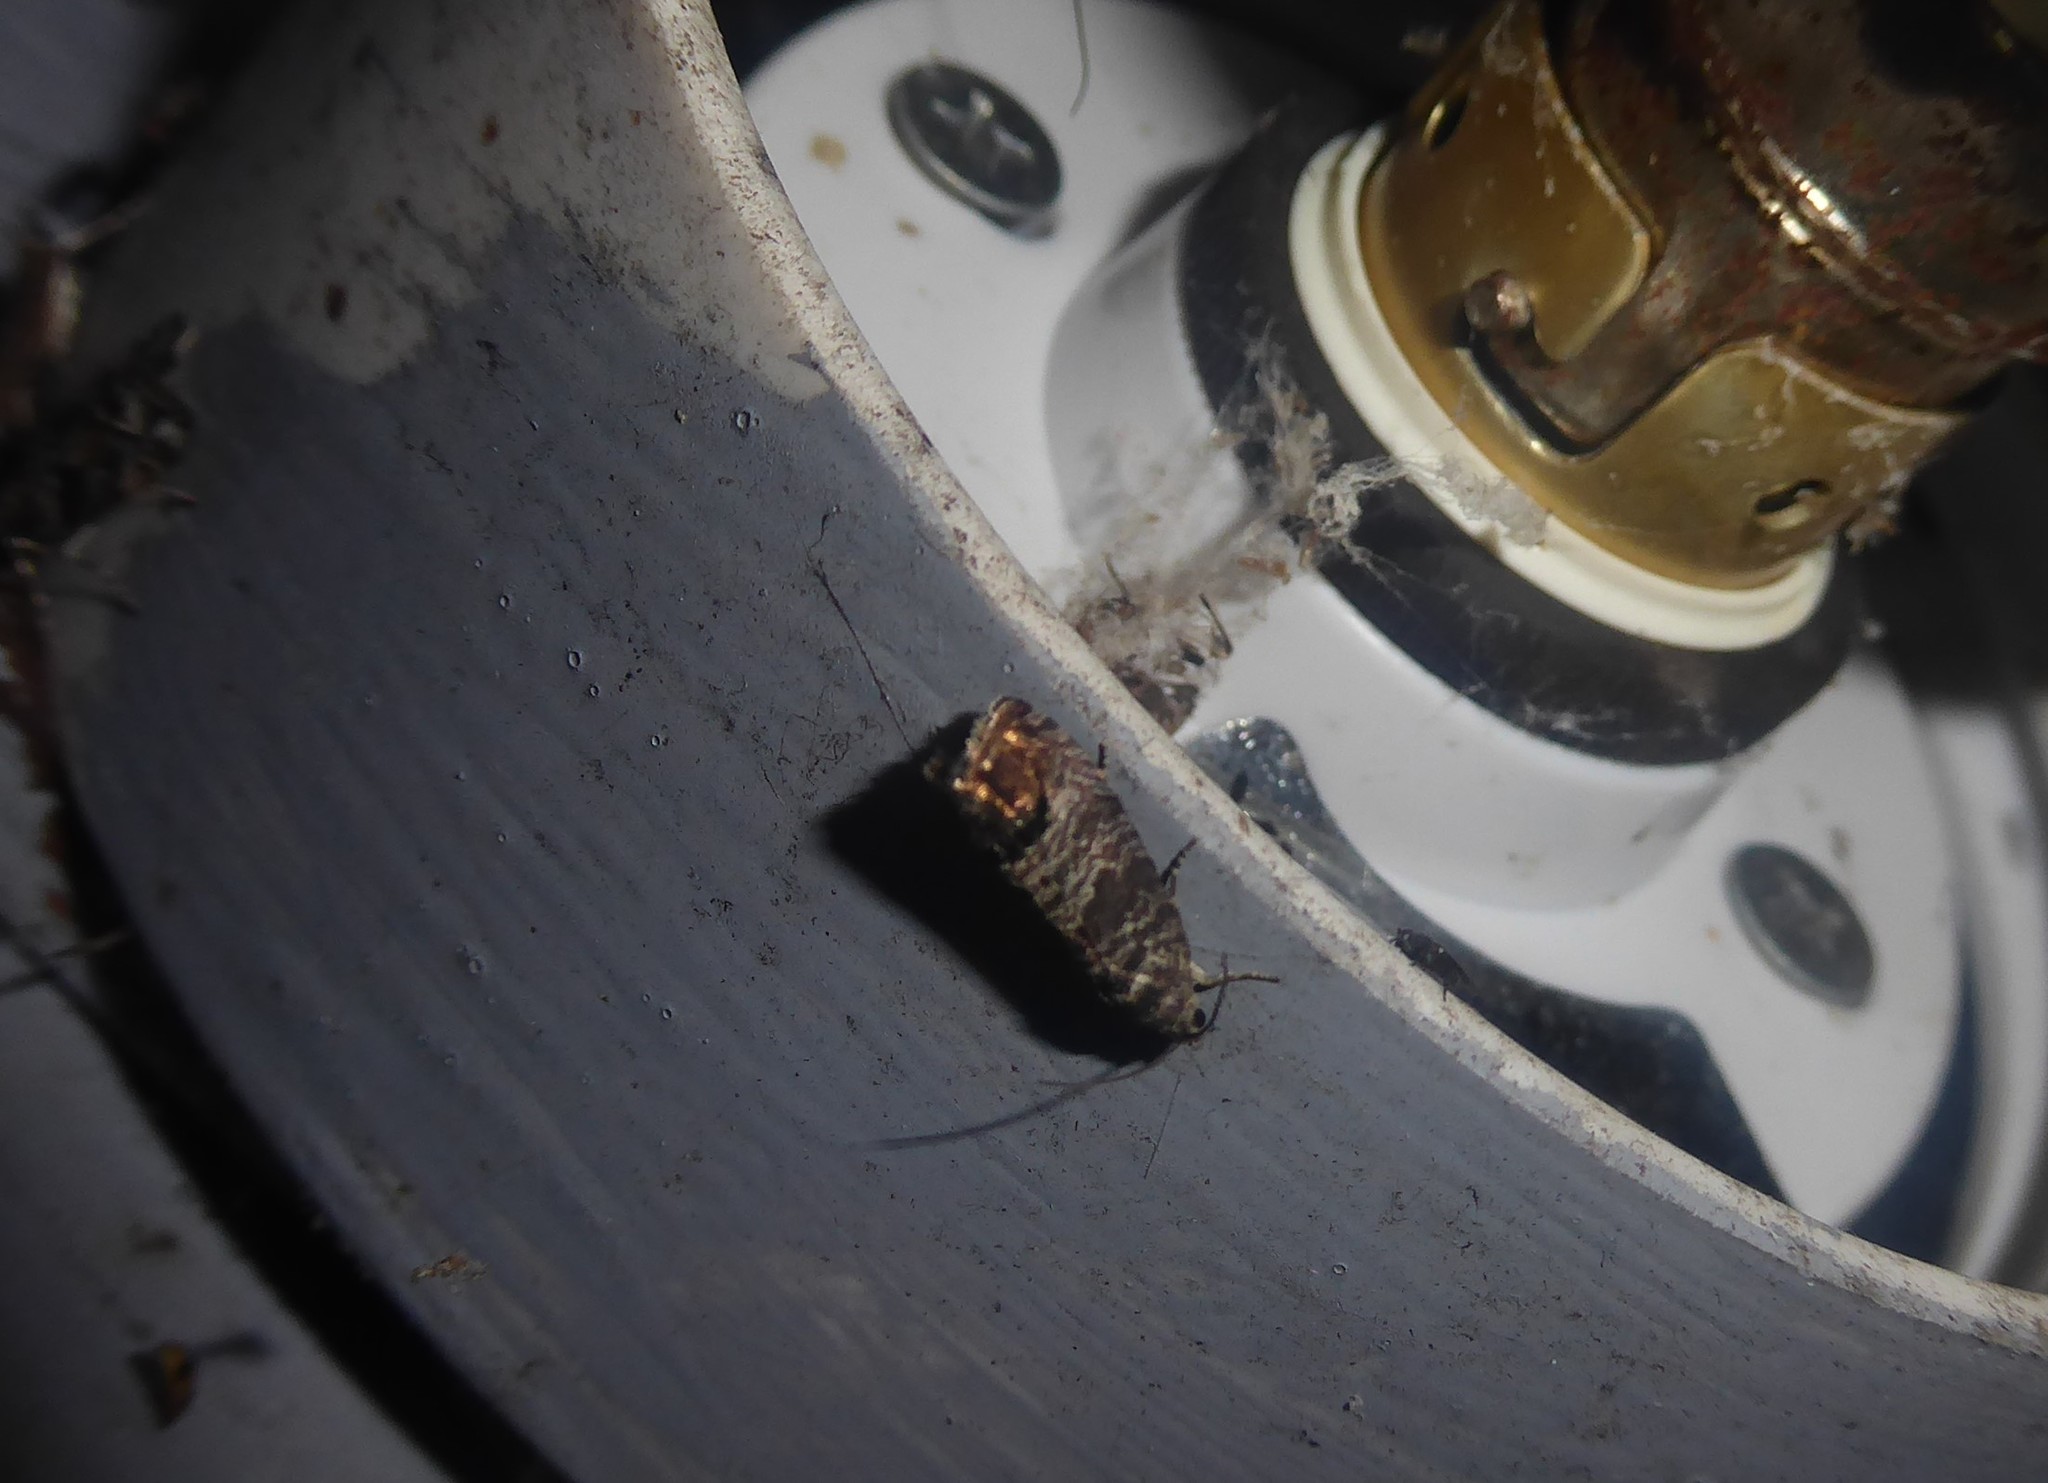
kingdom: Animalia
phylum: Arthropoda
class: Insecta
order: Lepidoptera
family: Tortricidae
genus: Cydia
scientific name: Cydia pomonella
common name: Codling moth
